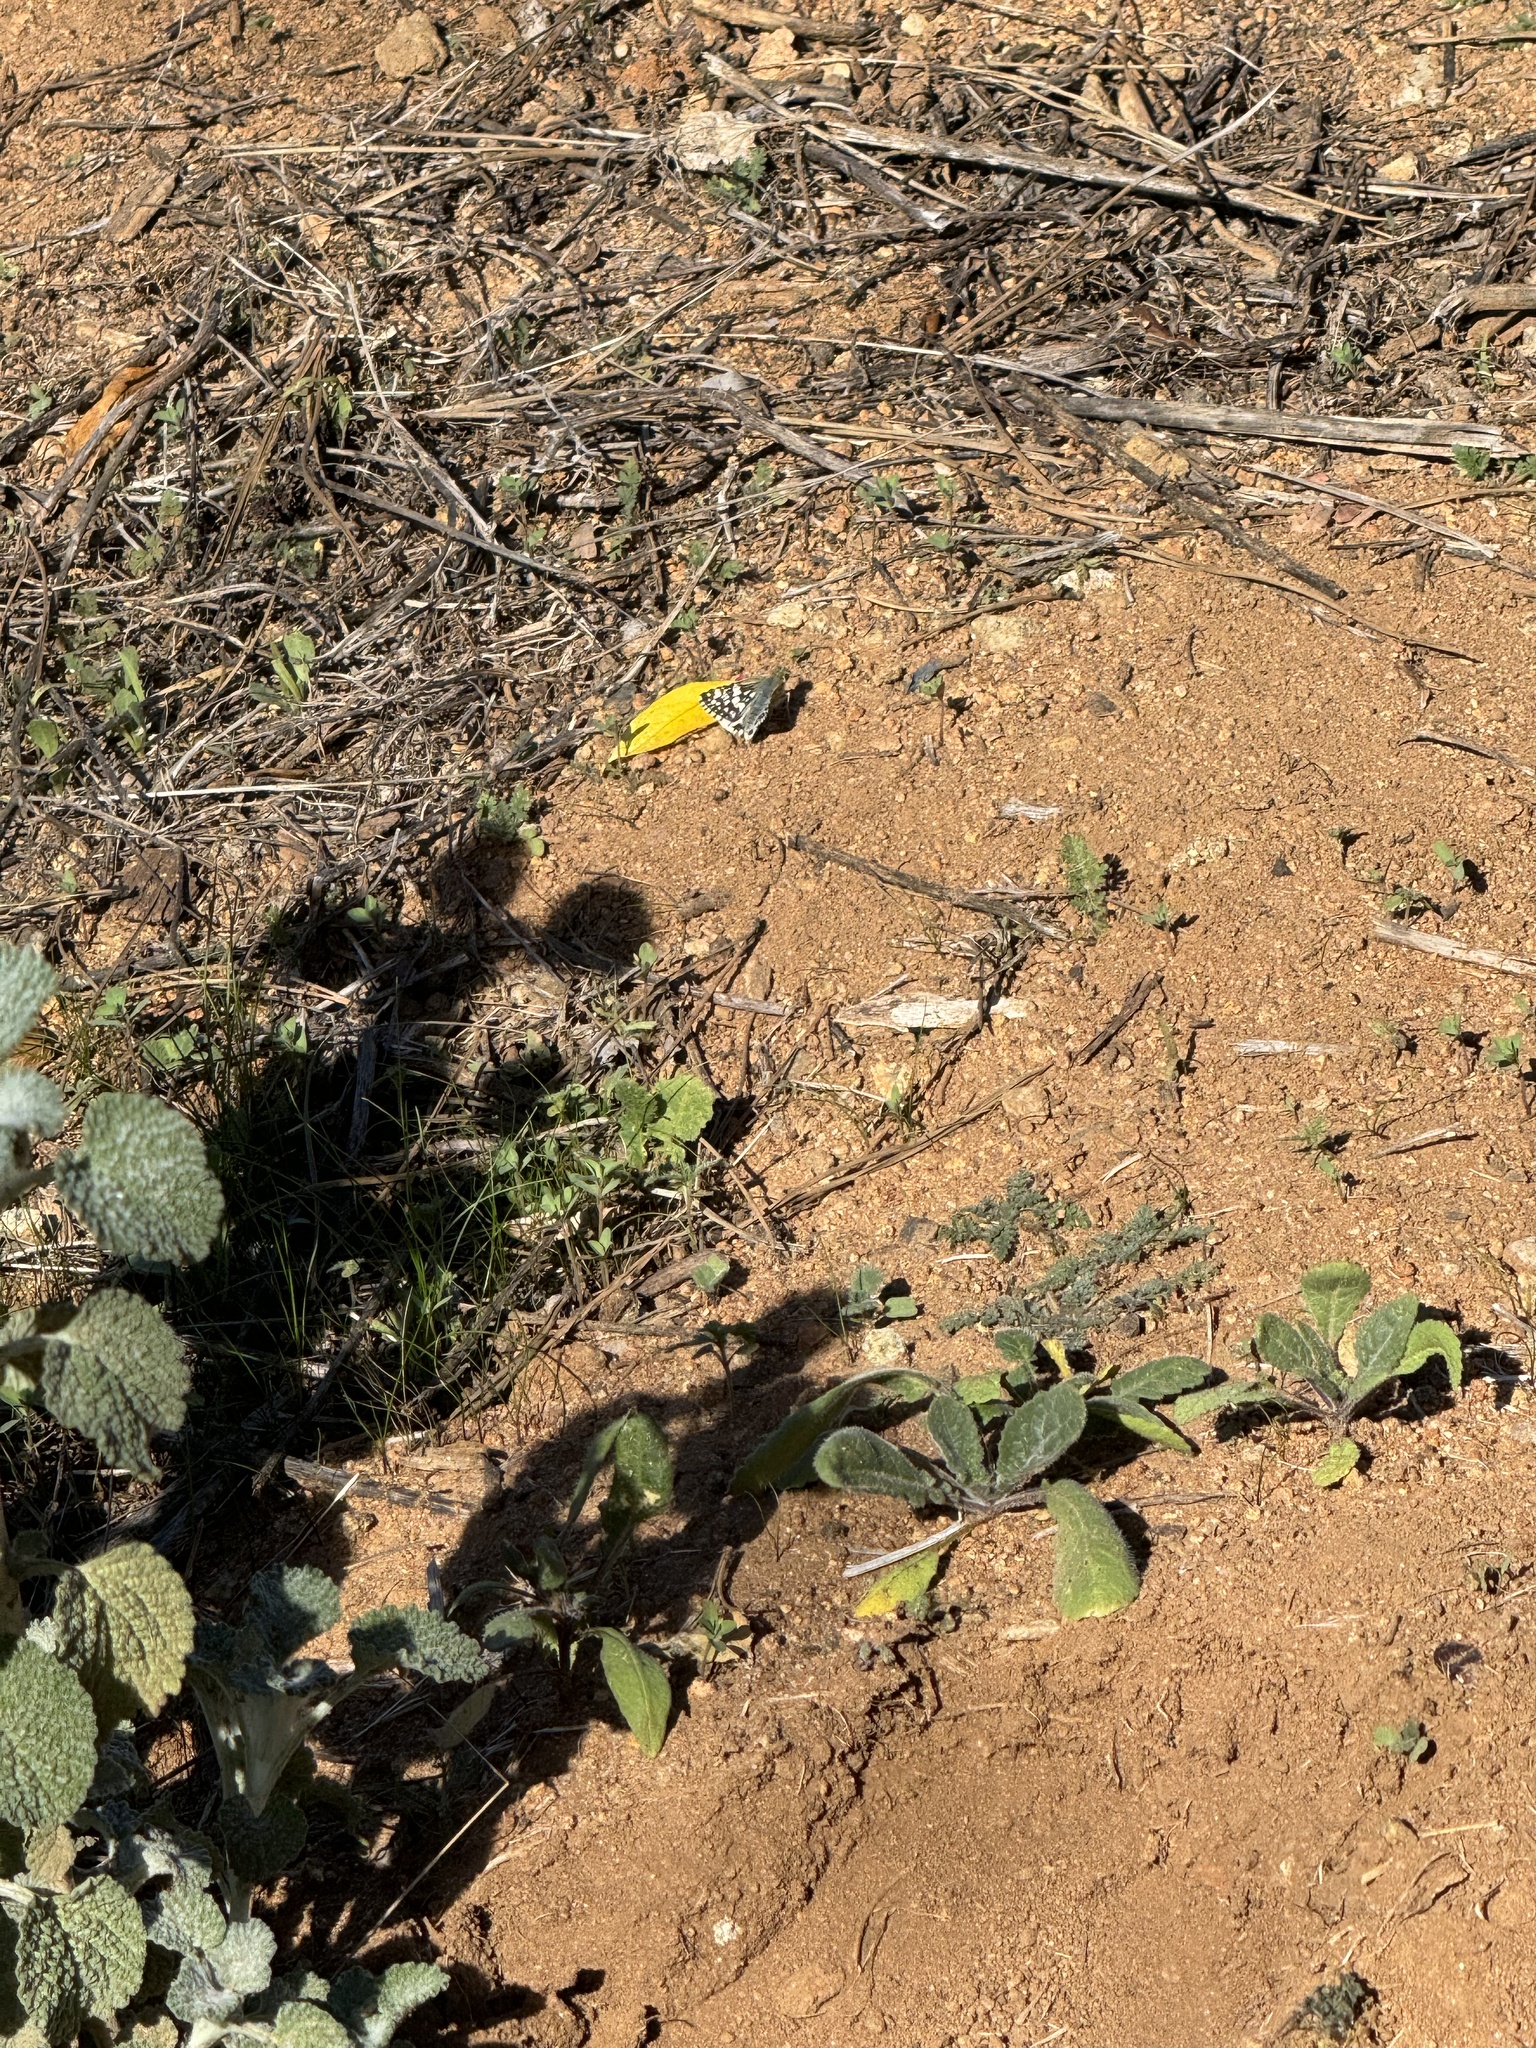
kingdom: Animalia
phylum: Arthropoda
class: Insecta
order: Lepidoptera
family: Hesperiidae
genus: Burnsius
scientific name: Burnsius
